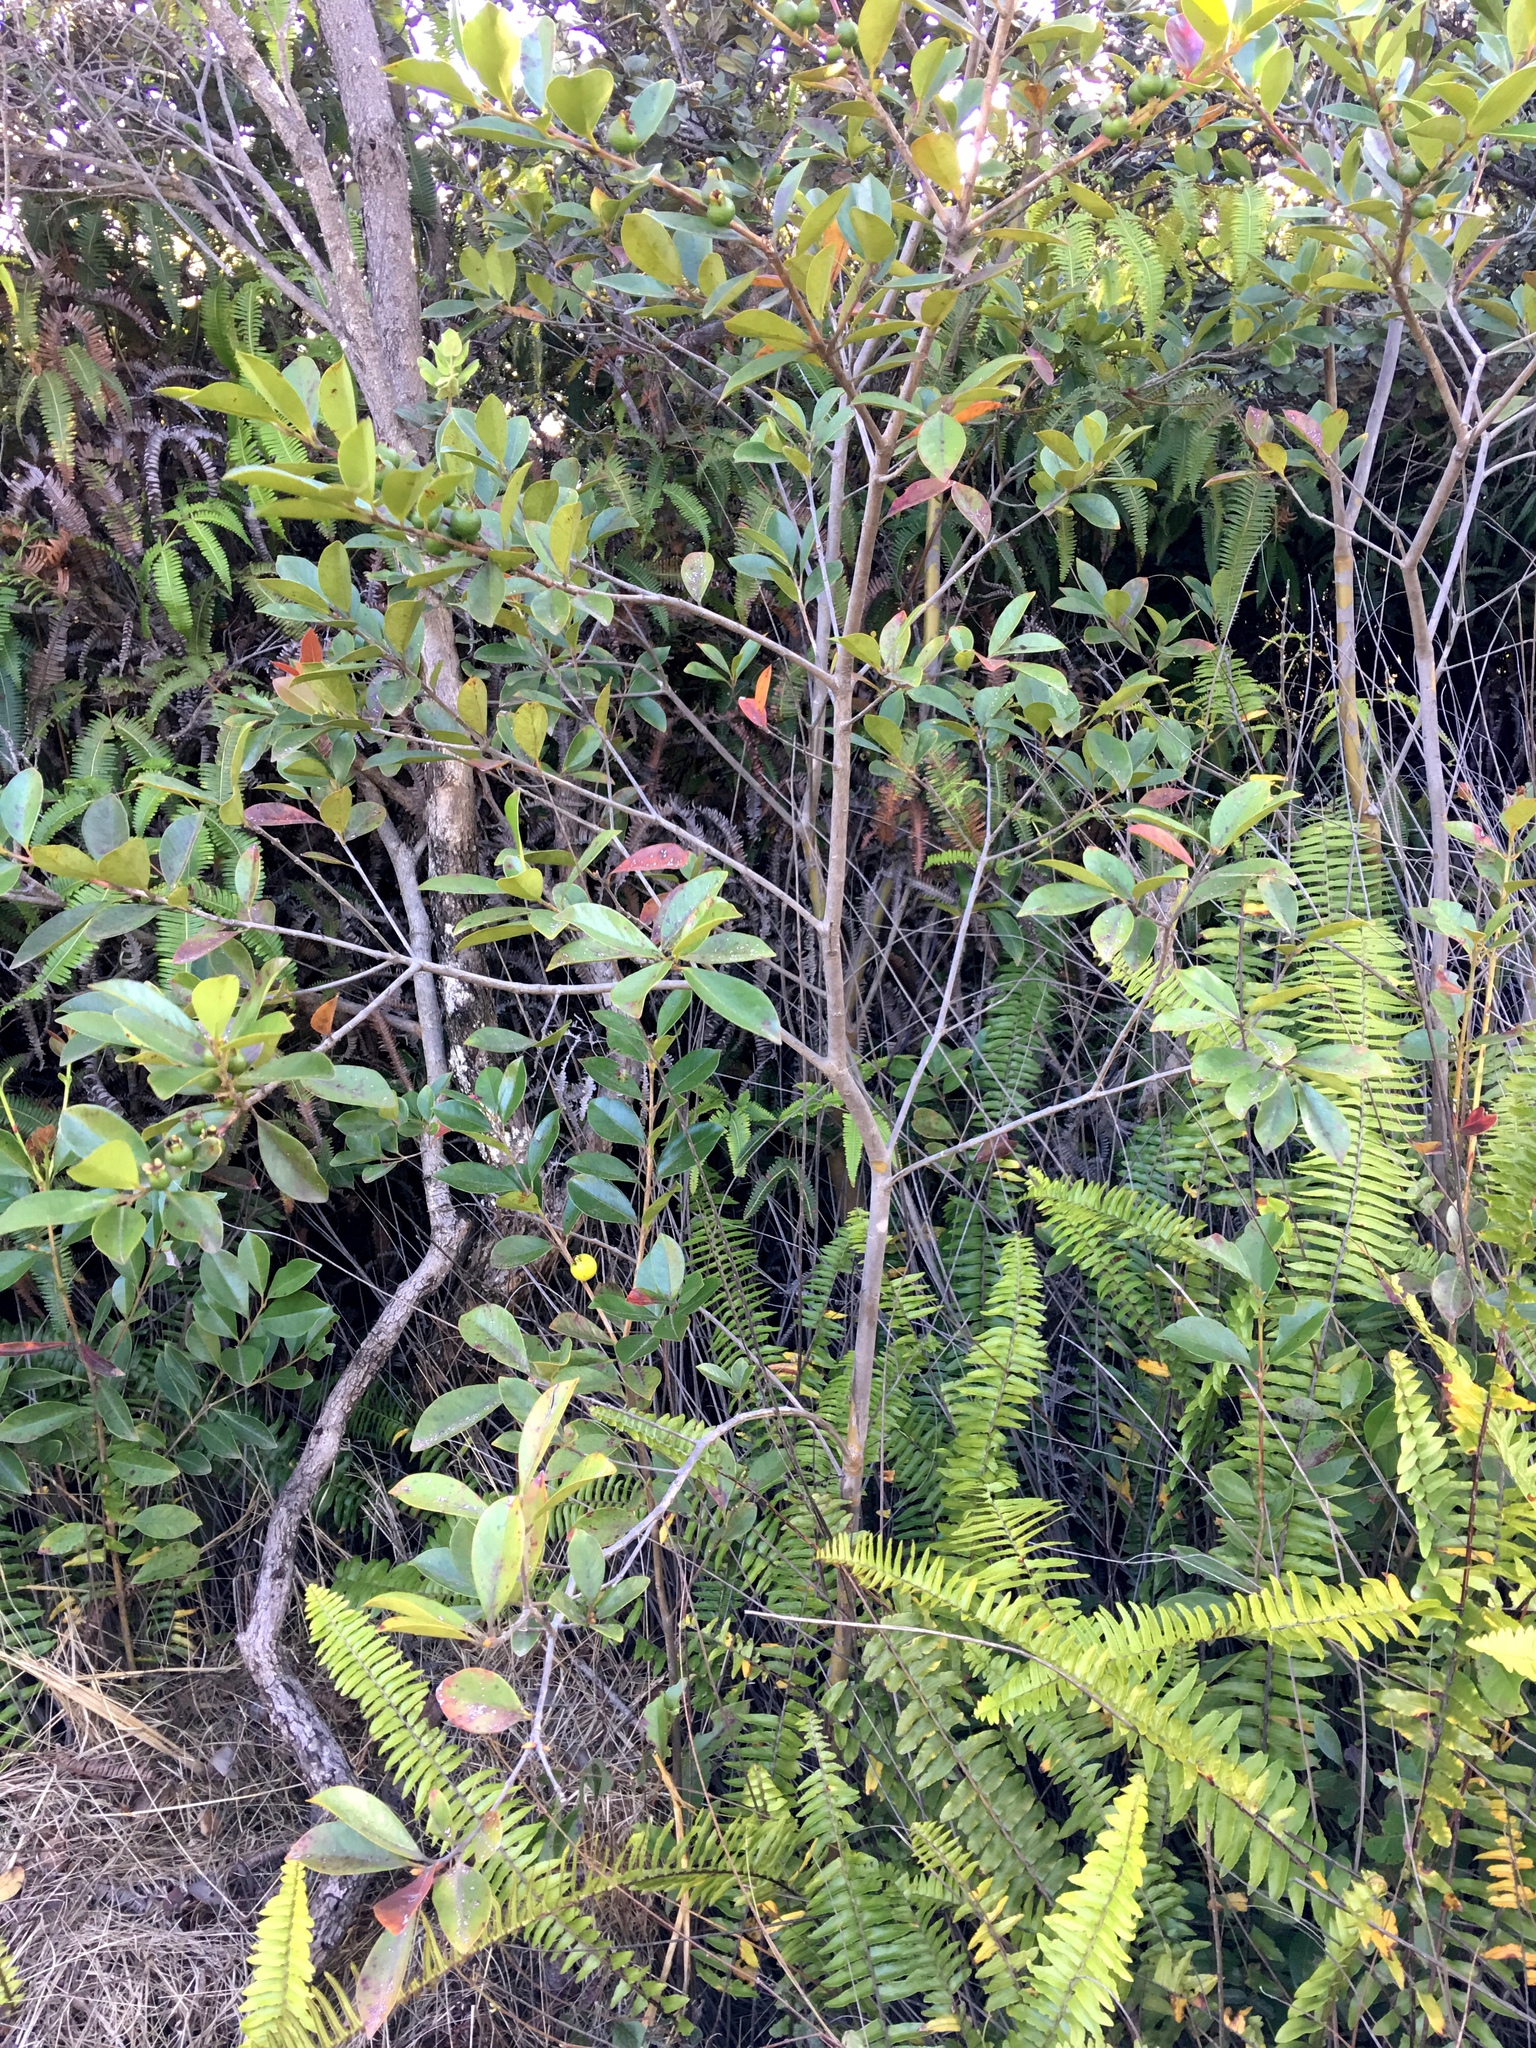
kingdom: Plantae
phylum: Tracheophyta
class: Magnoliopsida
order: Myrtales
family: Myrtaceae
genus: Psidium
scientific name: Psidium cattleianum
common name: Strawberry guava
